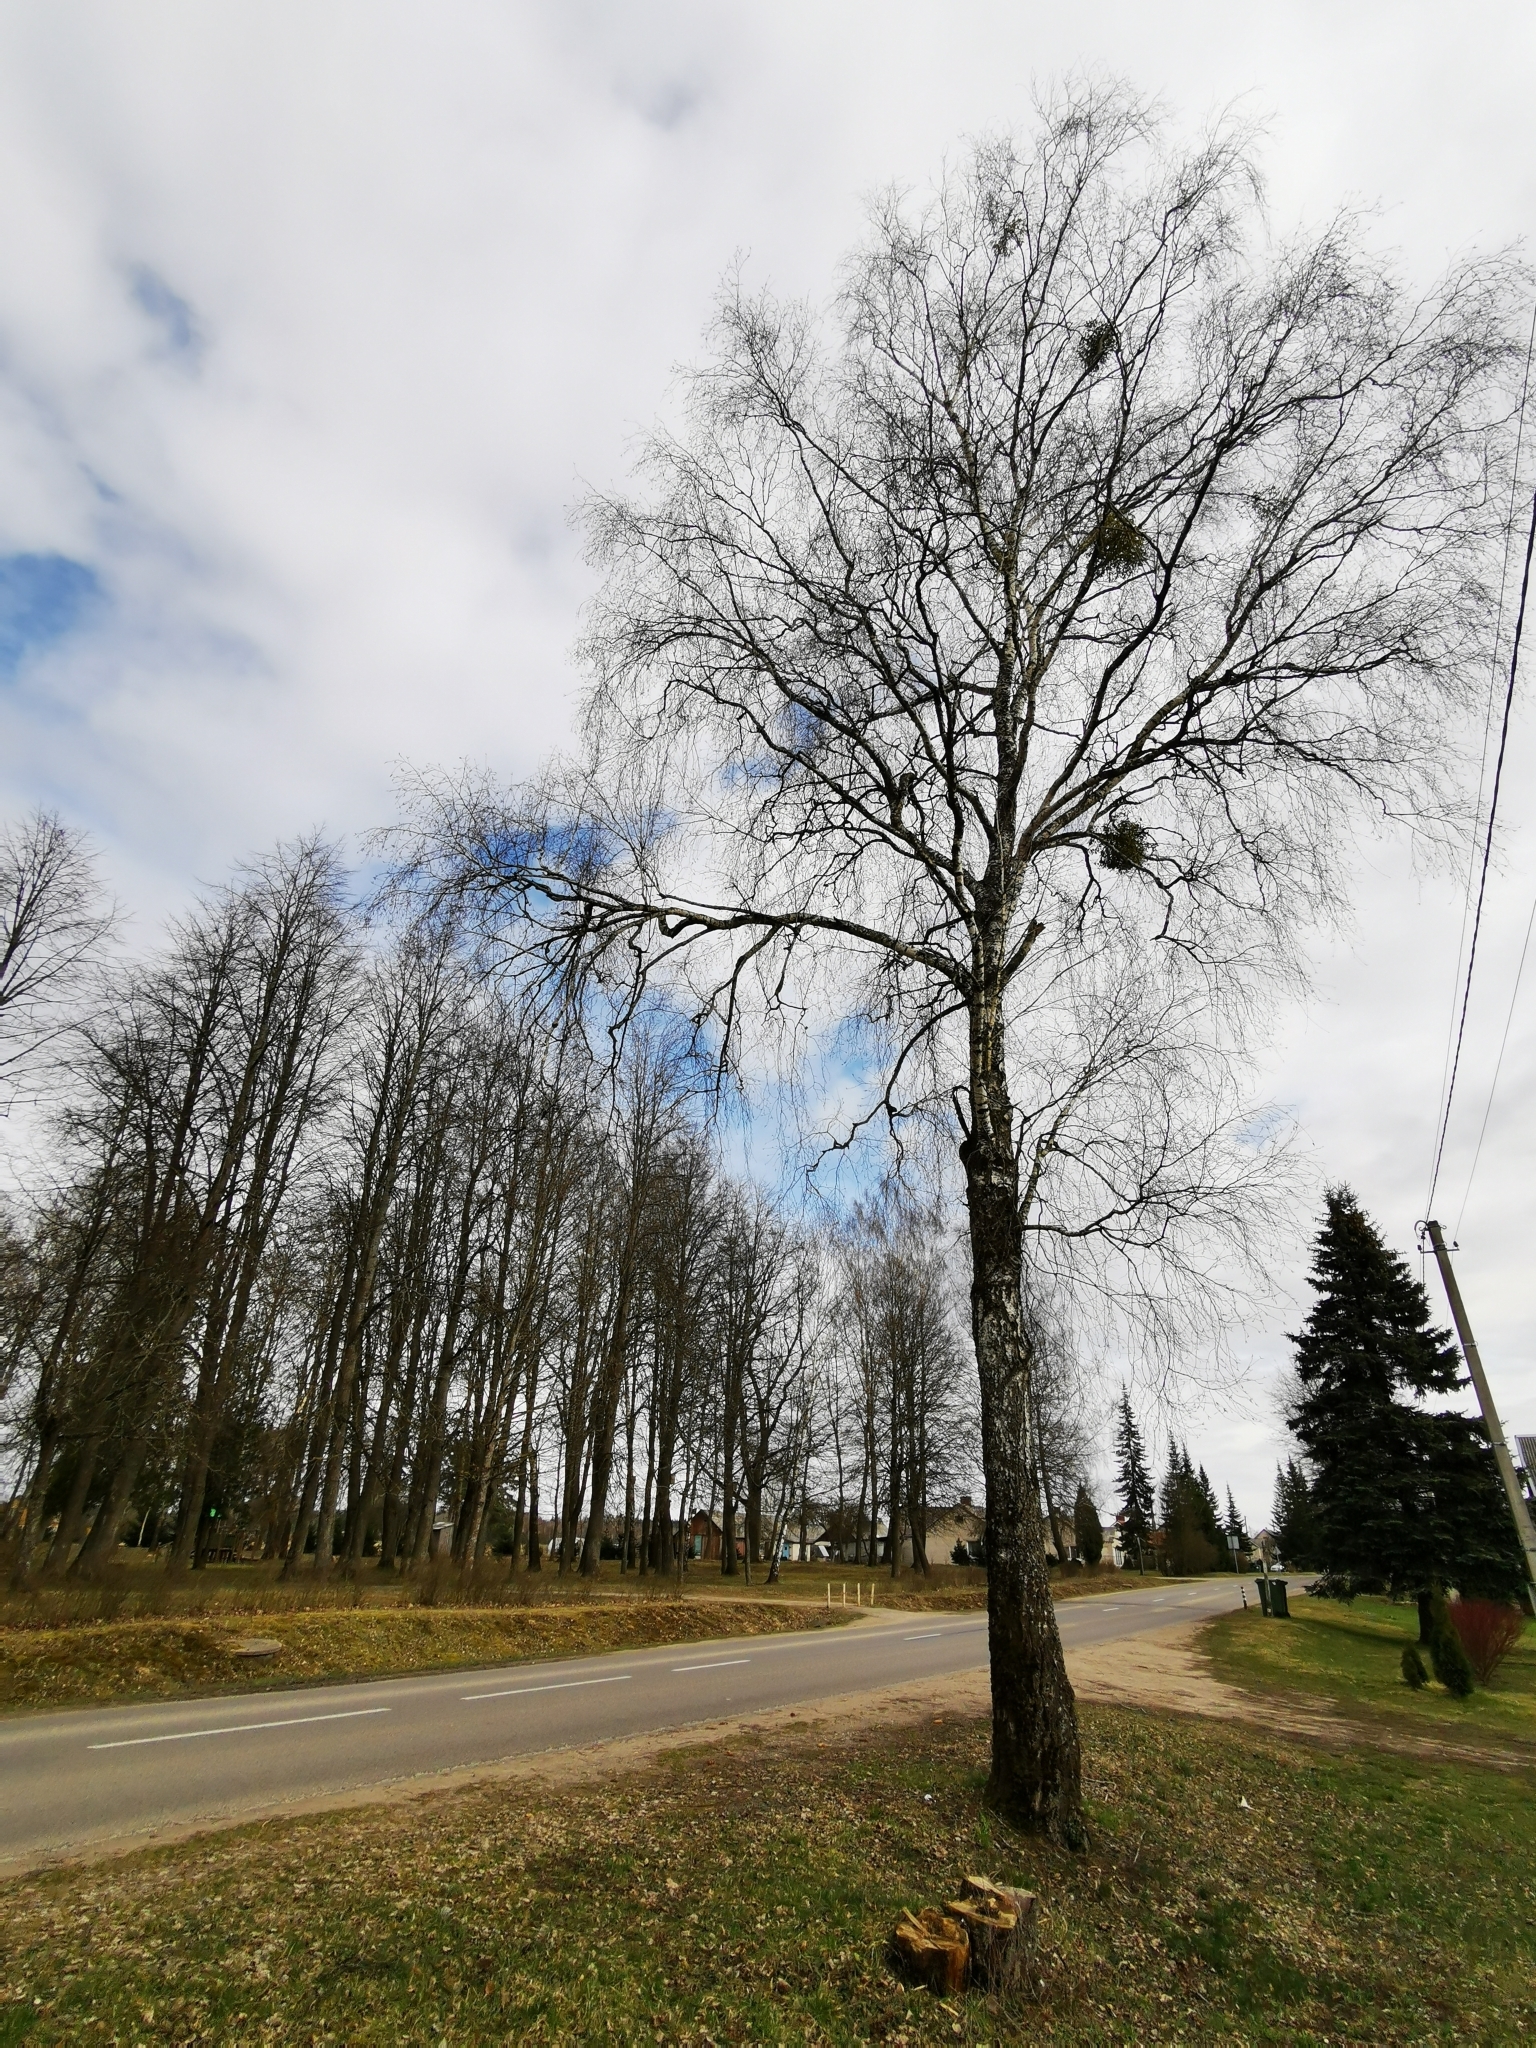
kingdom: Plantae
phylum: Tracheophyta
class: Magnoliopsida
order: Santalales
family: Viscaceae
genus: Viscum
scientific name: Viscum album
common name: Mistletoe
